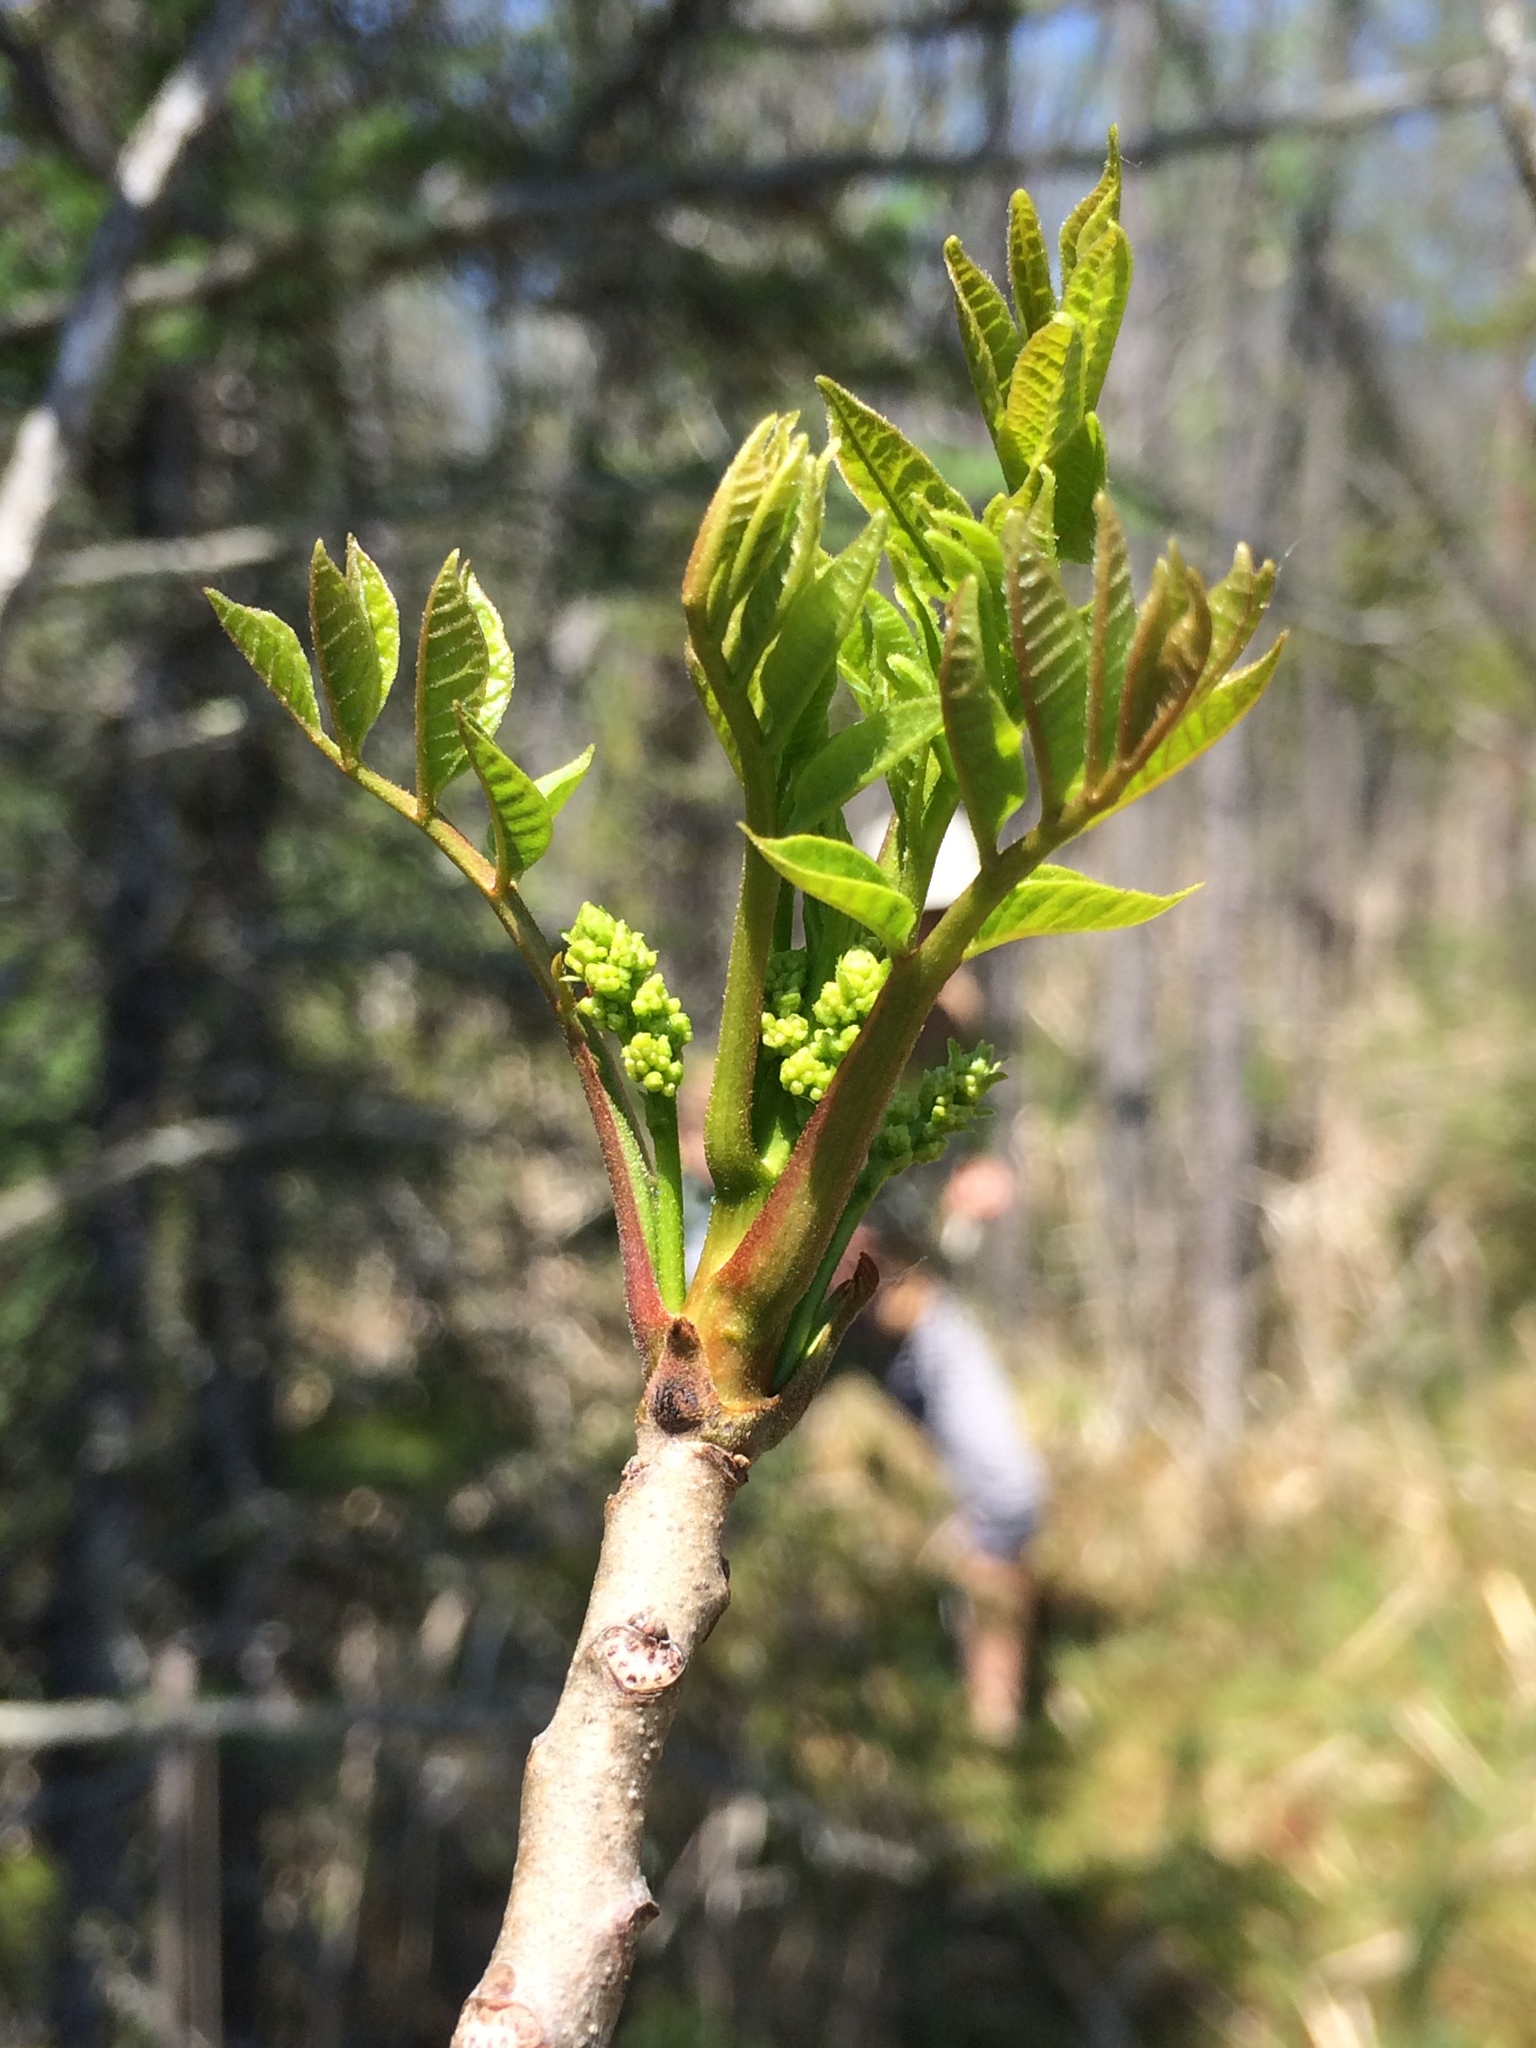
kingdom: Plantae
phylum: Tracheophyta
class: Magnoliopsida
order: Sapindales
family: Anacardiaceae
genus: Toxicodendron
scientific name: Toxicodendron vernix
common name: Poison sumac
